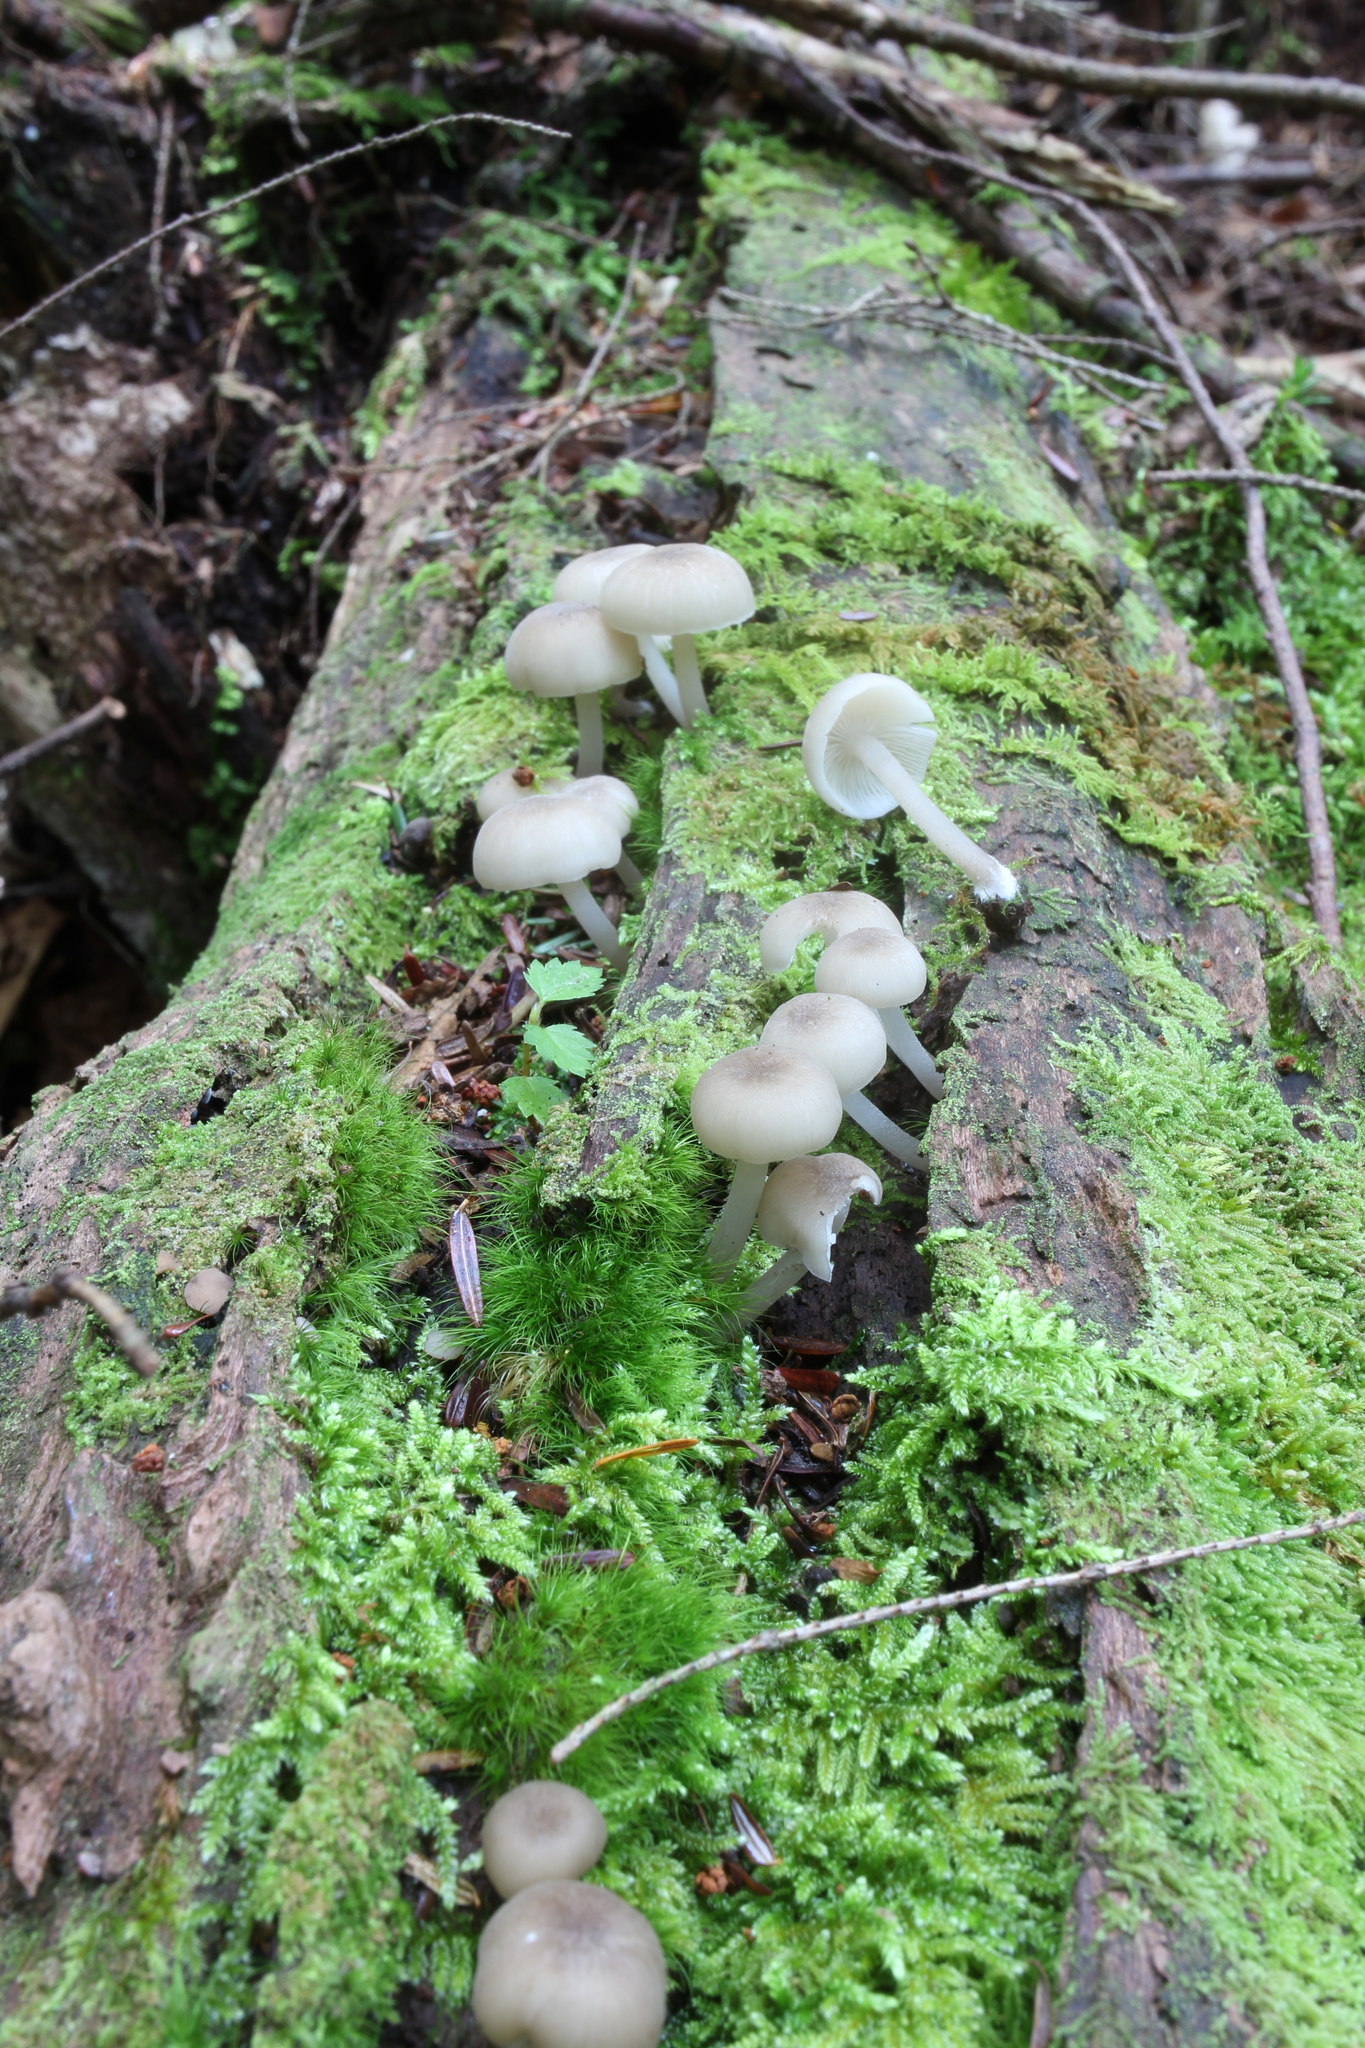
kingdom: Fungi
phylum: Basidiomycota
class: Agaricomycetes
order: Agaricales
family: Marasmiaceae
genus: Clitocybula
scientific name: Clitocybula oculus
